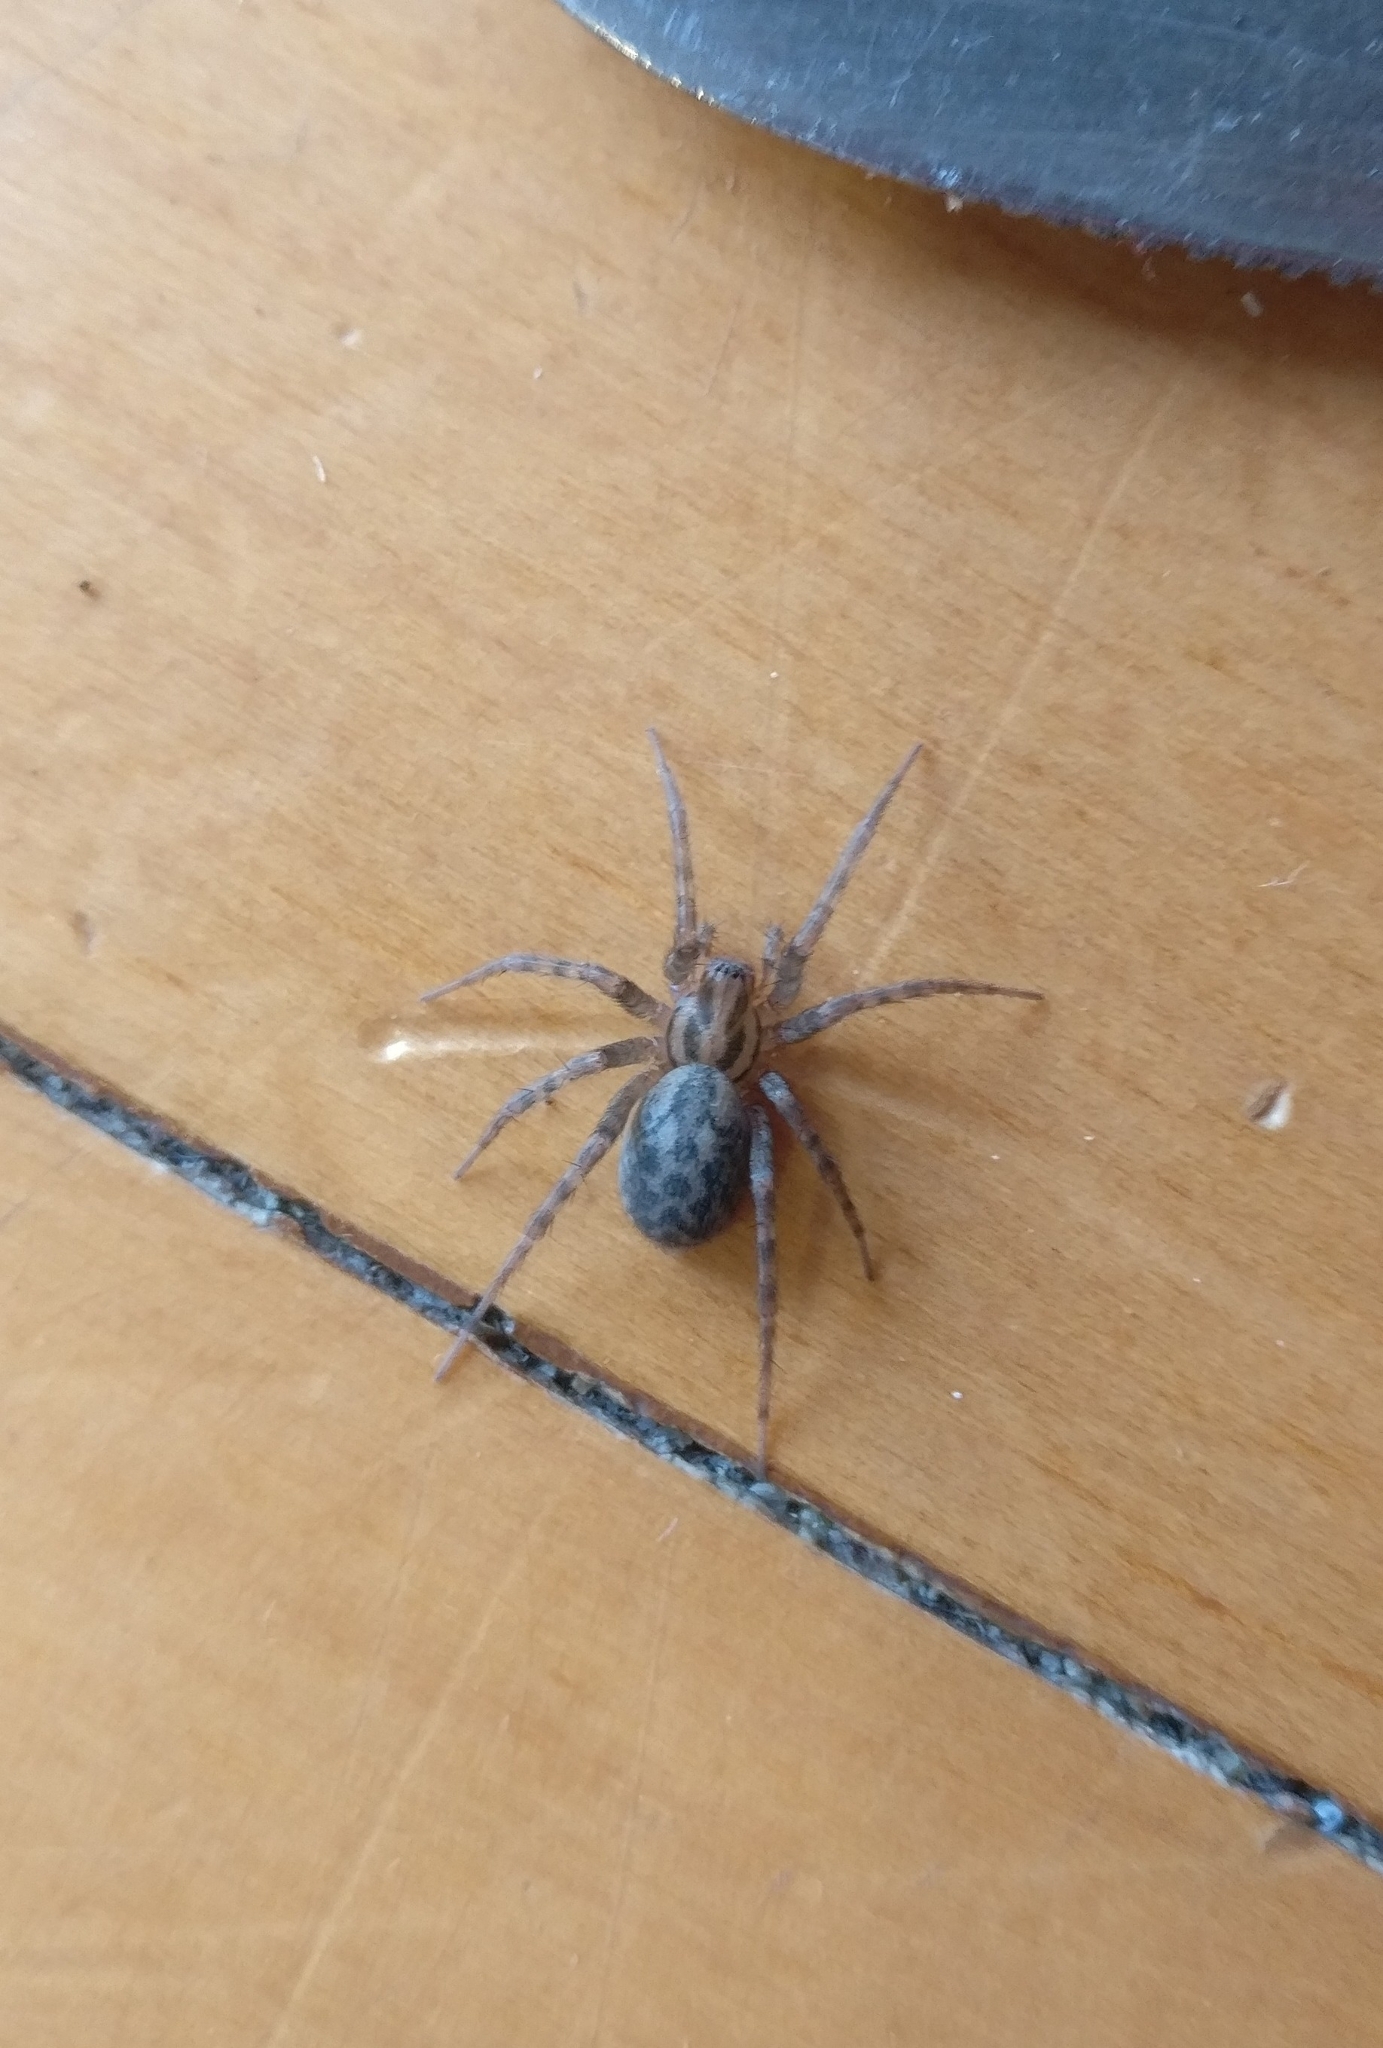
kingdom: Animalia
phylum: Arthropoda
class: Arachnida
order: Araneae
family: Agelenidae
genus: Tegenaria
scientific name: Tegenaria domestica
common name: Barn funnel weaver
